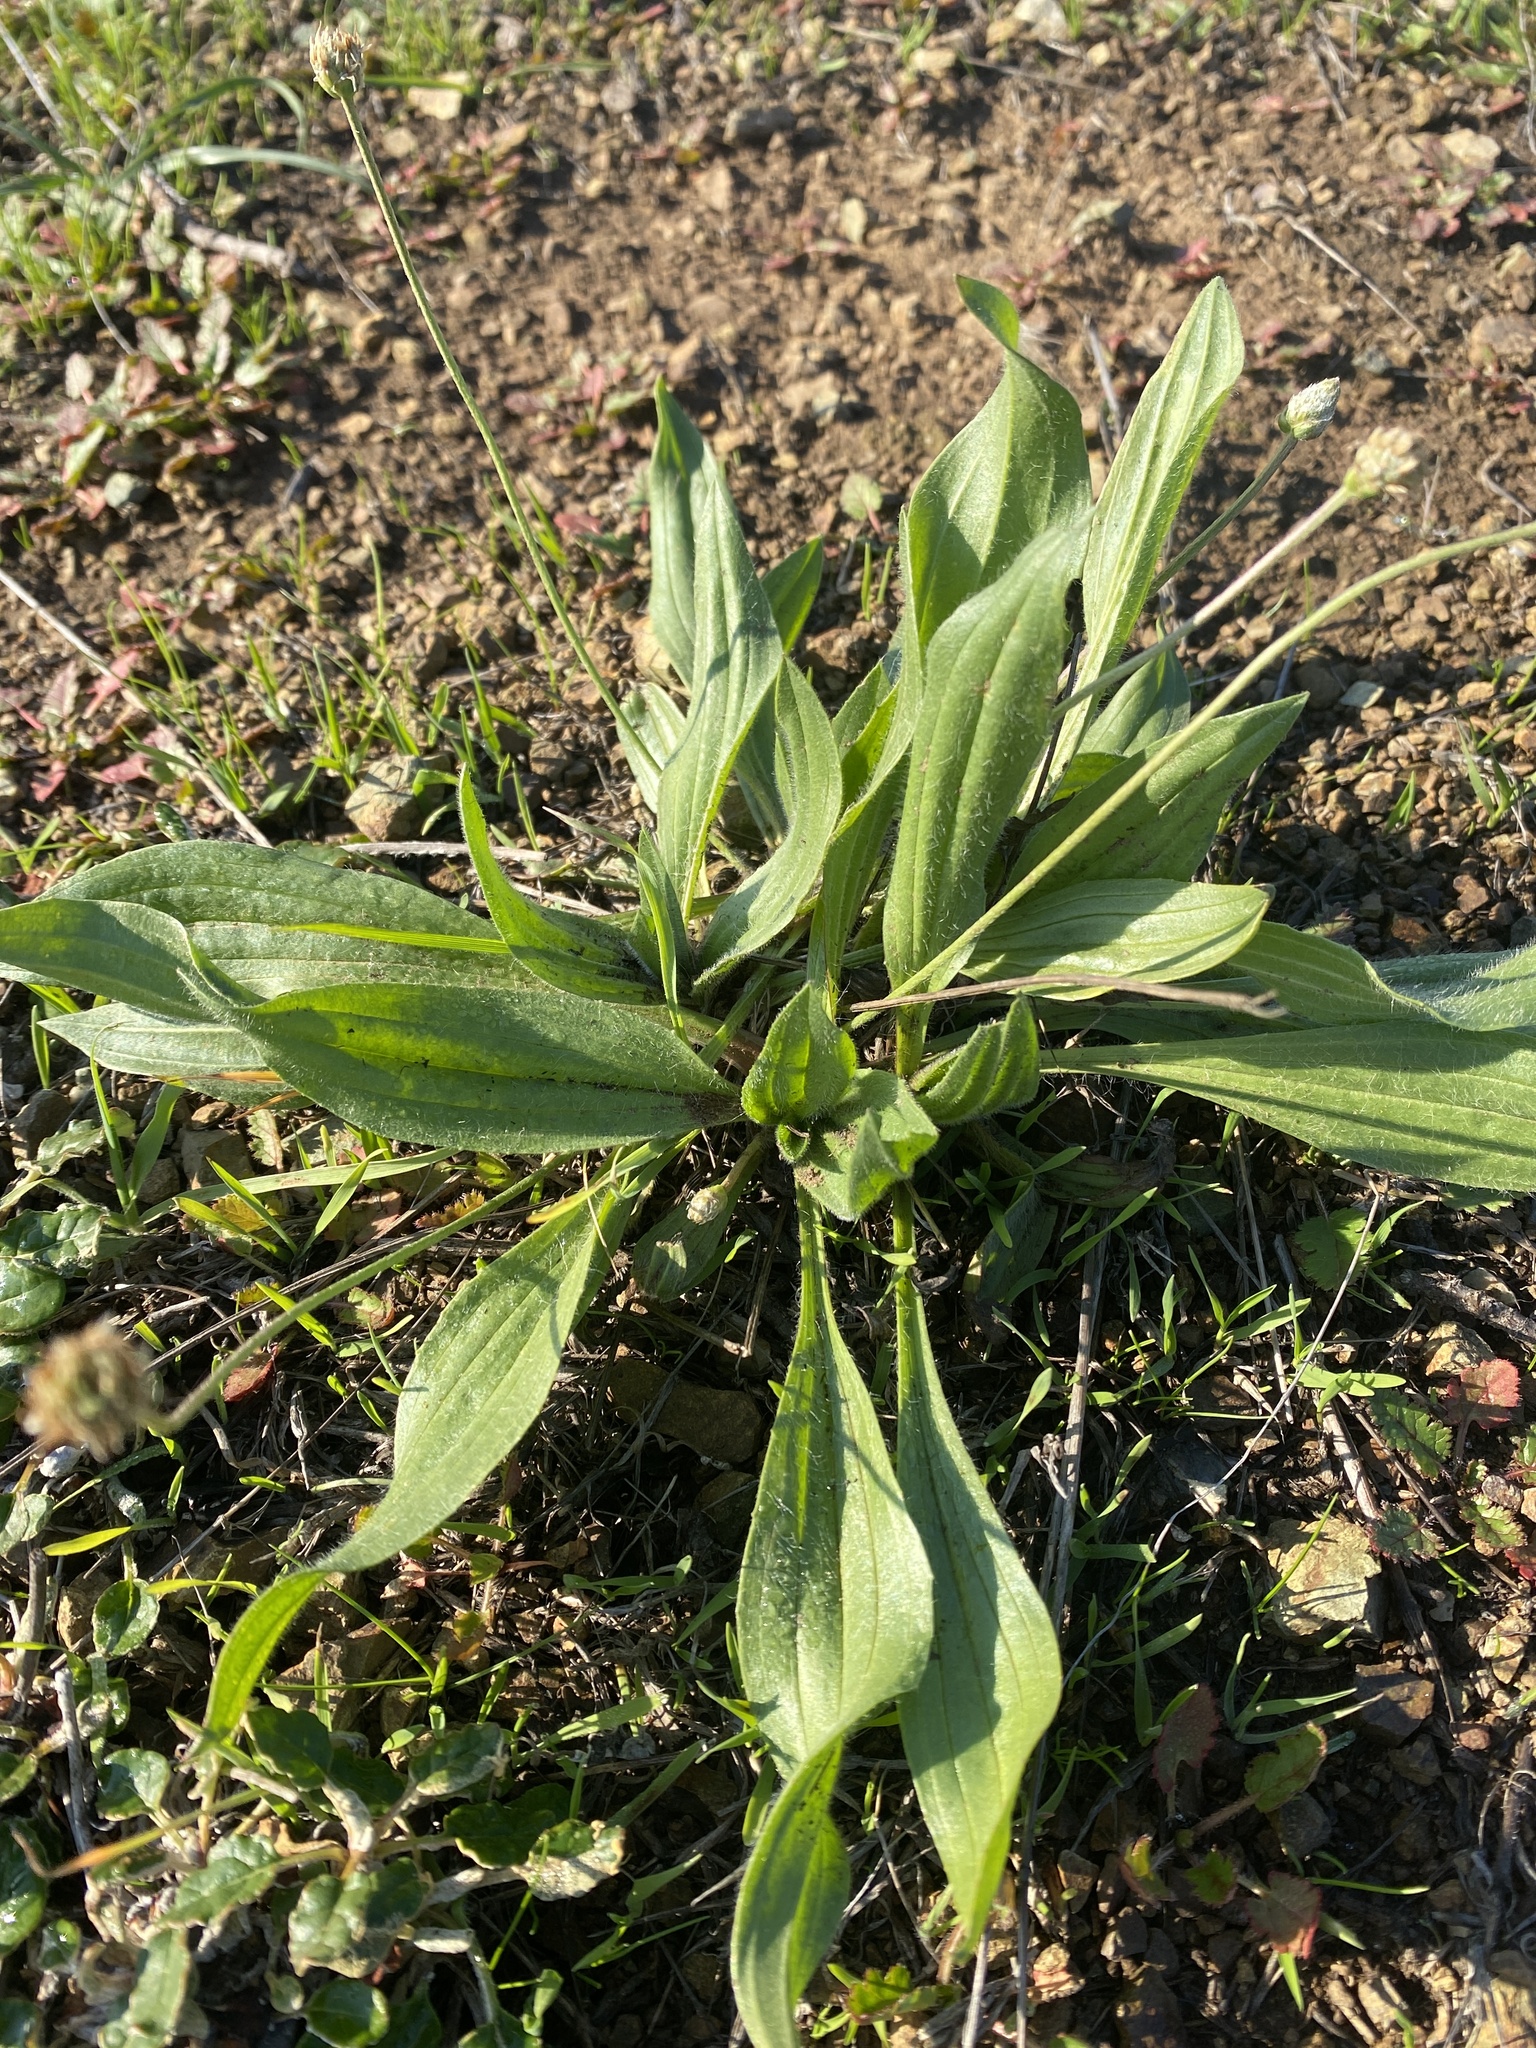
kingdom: Plantae
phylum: Tracheophyta
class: Magnoliopsida
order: Lamiales
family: Plantaginaceae
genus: Plantago
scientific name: Plantago lanceolata
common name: Ribwort plantain
